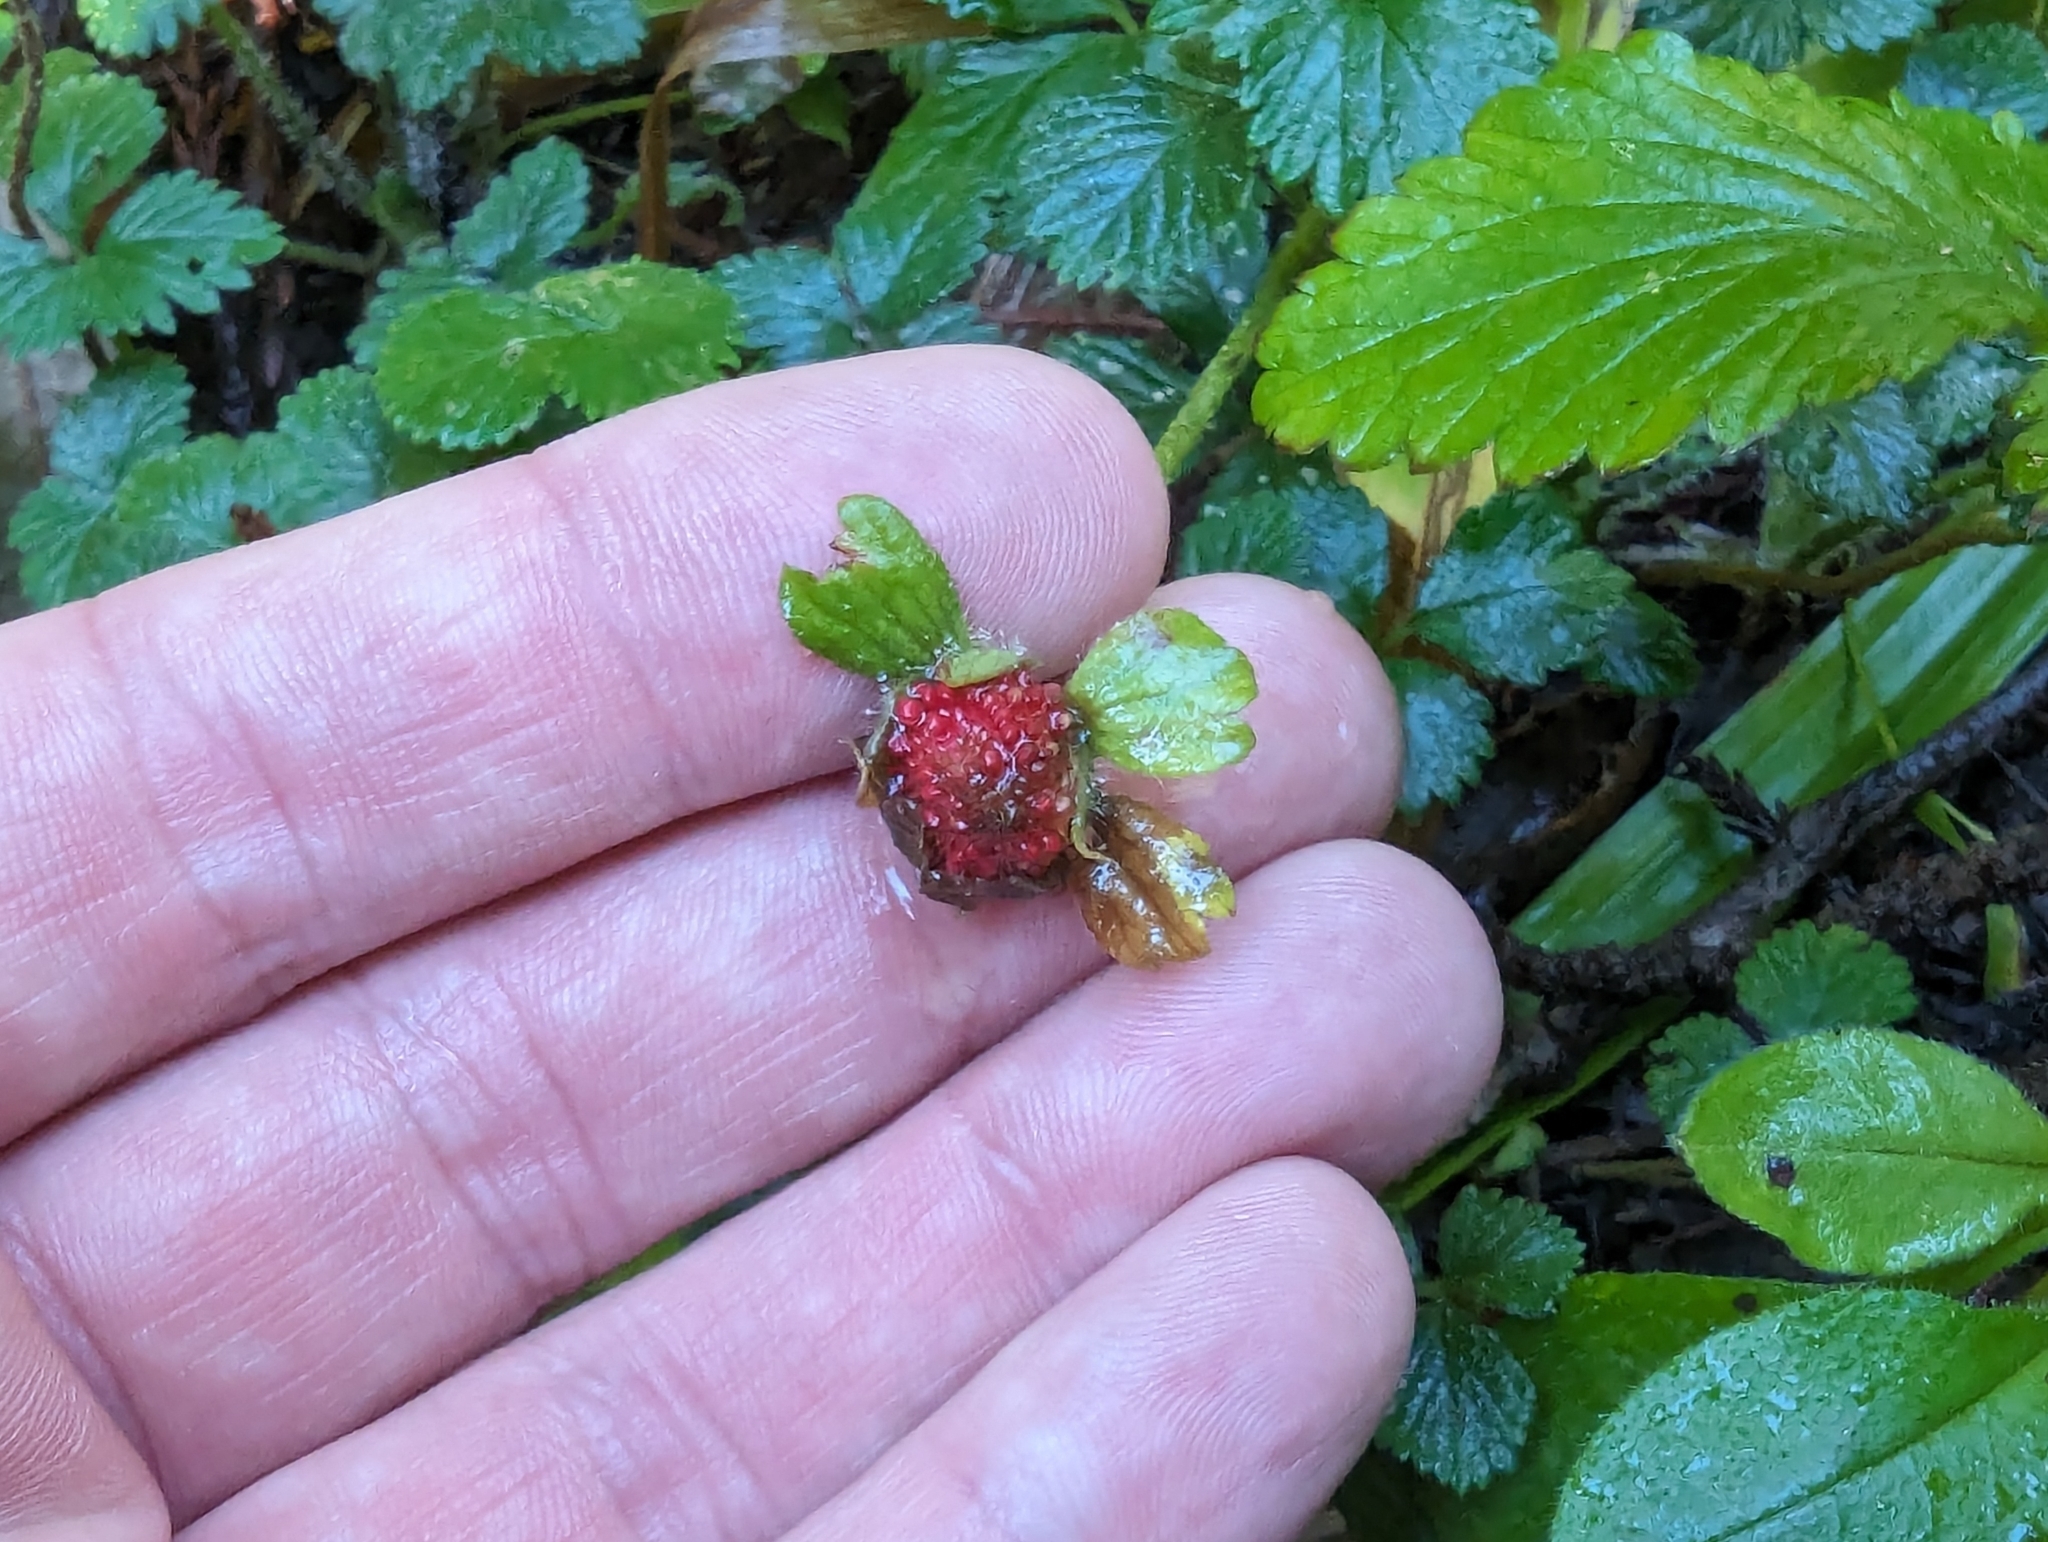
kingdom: Plantae
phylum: Tracheophyta
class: Magnoliopsida
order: Rosales
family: Rosaceae
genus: Potentilla
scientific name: Potentilla indica
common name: Yellow-flowered strawberry
